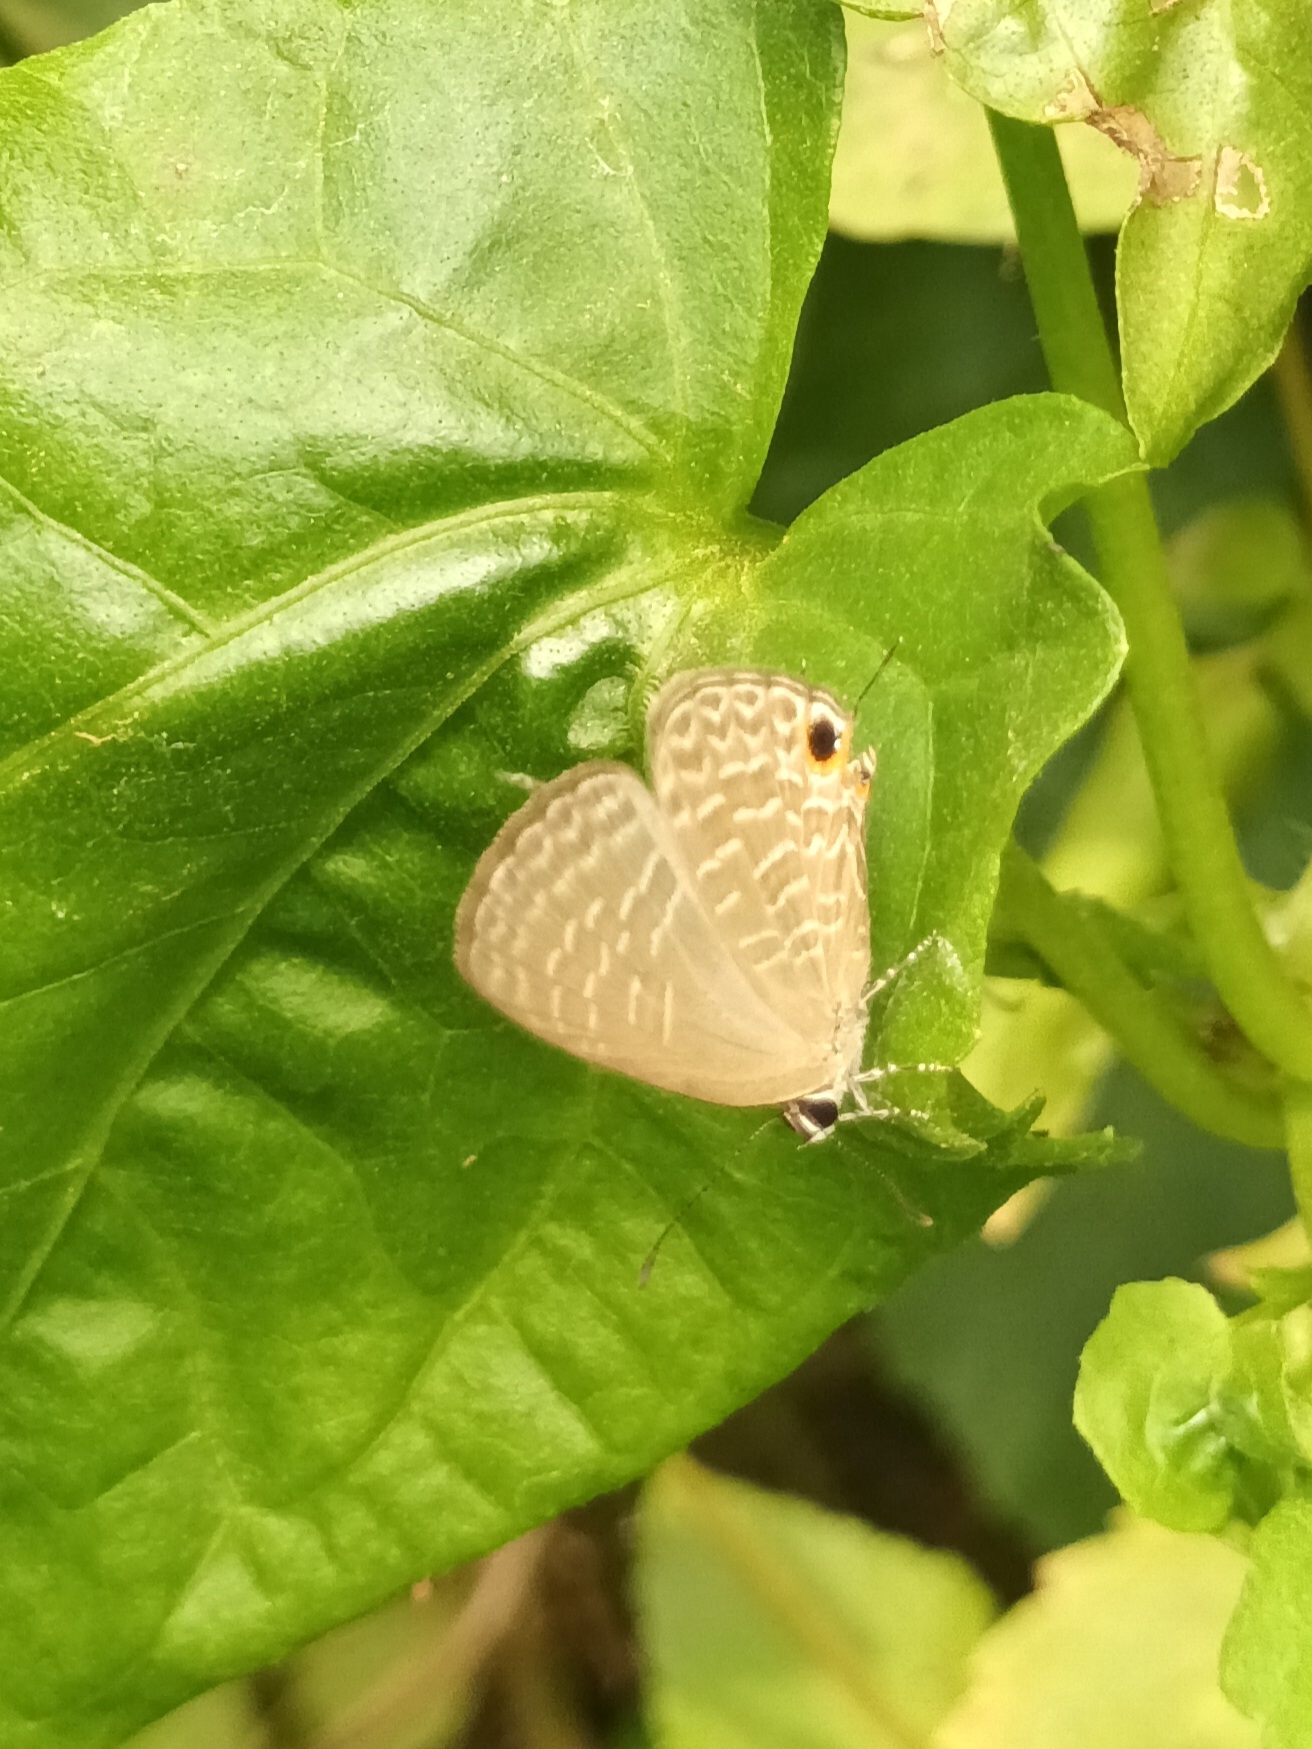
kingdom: Animalia
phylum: Arthropoda
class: Insecta
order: Lepidoptera
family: Lycaenidae
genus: Jamides
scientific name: Jamides bochus
